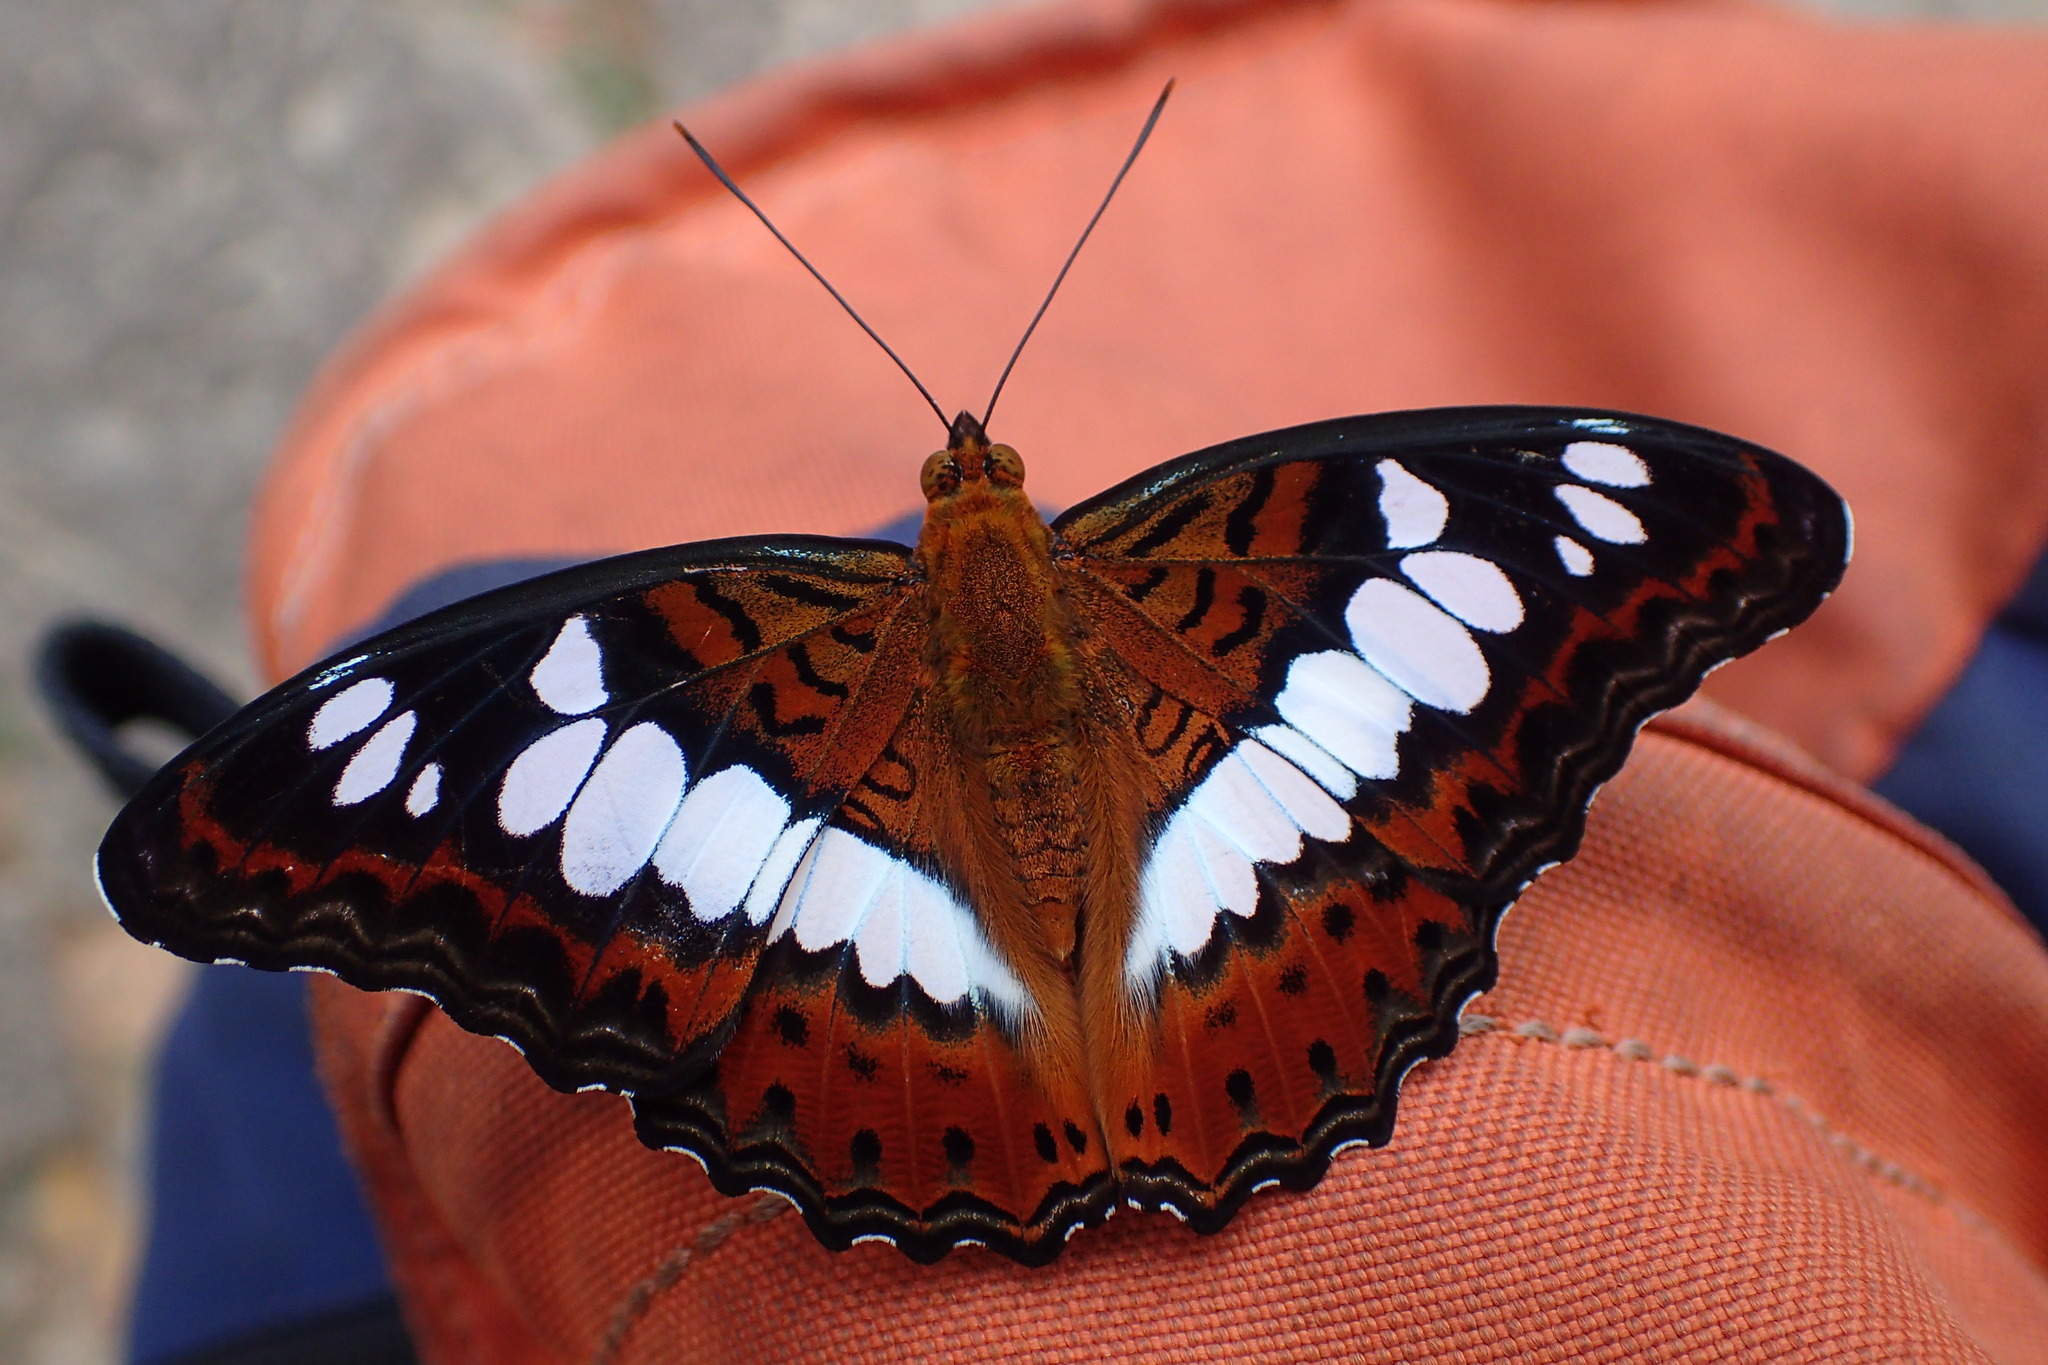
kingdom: Animalia
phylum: Arthropoda
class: Insecta
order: Lepidoptera
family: Nymphalidae
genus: Limenitis
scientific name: Limenitis Moduza procris
